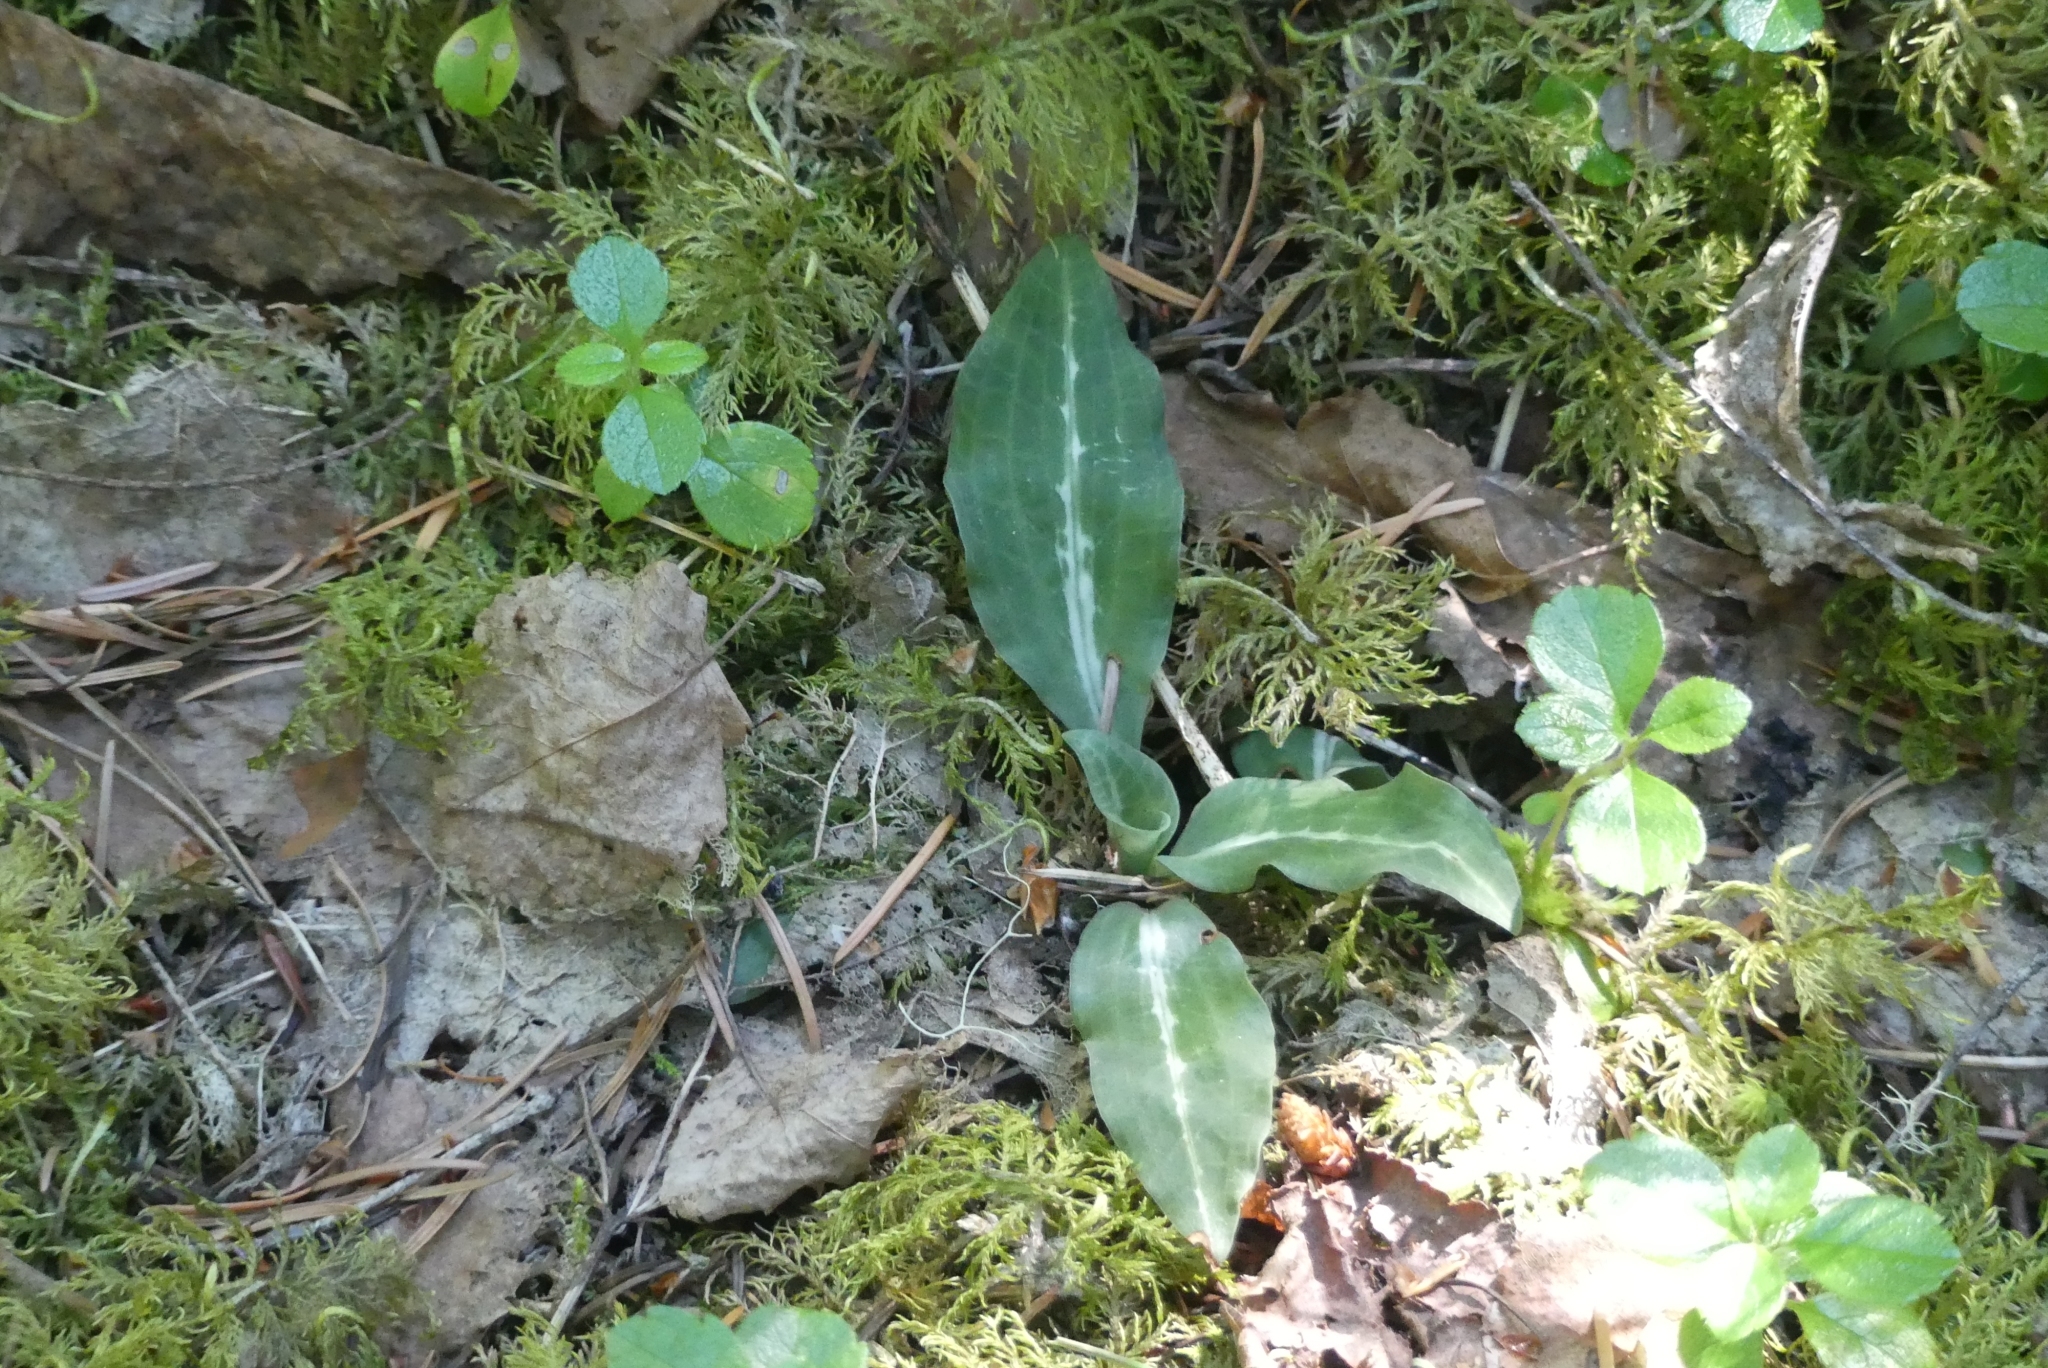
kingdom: Plantae
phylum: Tracheophyta
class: Liliopsida
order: Asparagales
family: Orchidaceae
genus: Goodyera
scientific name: Goodyera oblongifolia
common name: Giant rattlesnake-plantain
